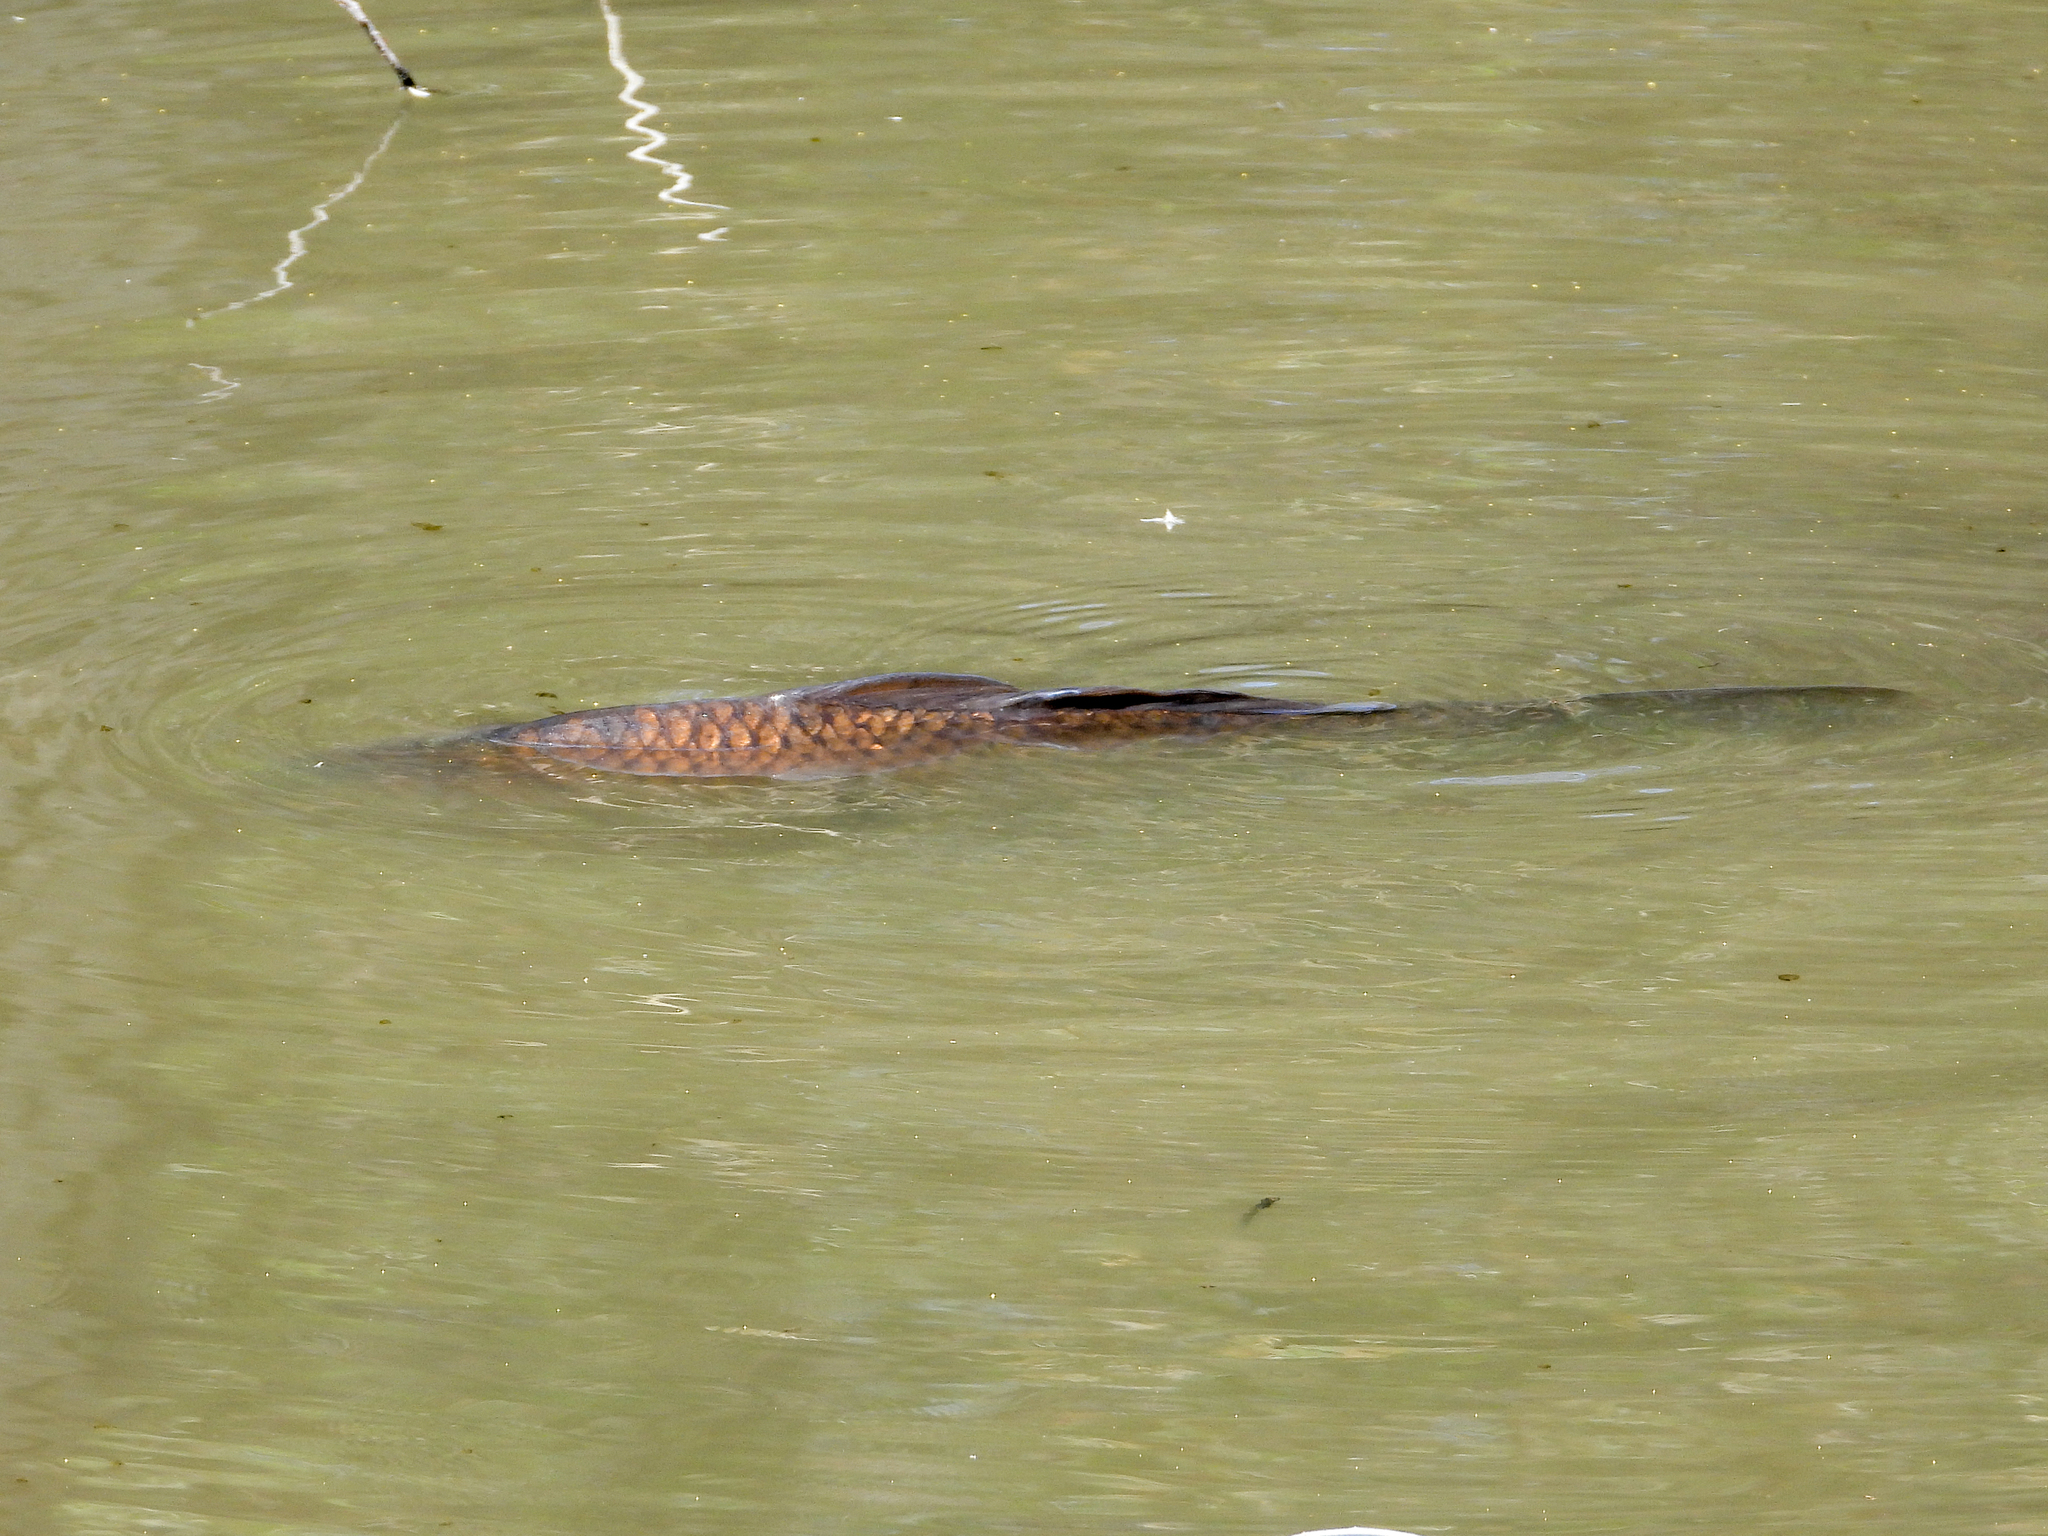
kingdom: Animalia
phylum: Chordata
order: Cypriniformes
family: Cyprinidae
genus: Cyprinus
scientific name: Cyprinus carpio
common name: Common carp
